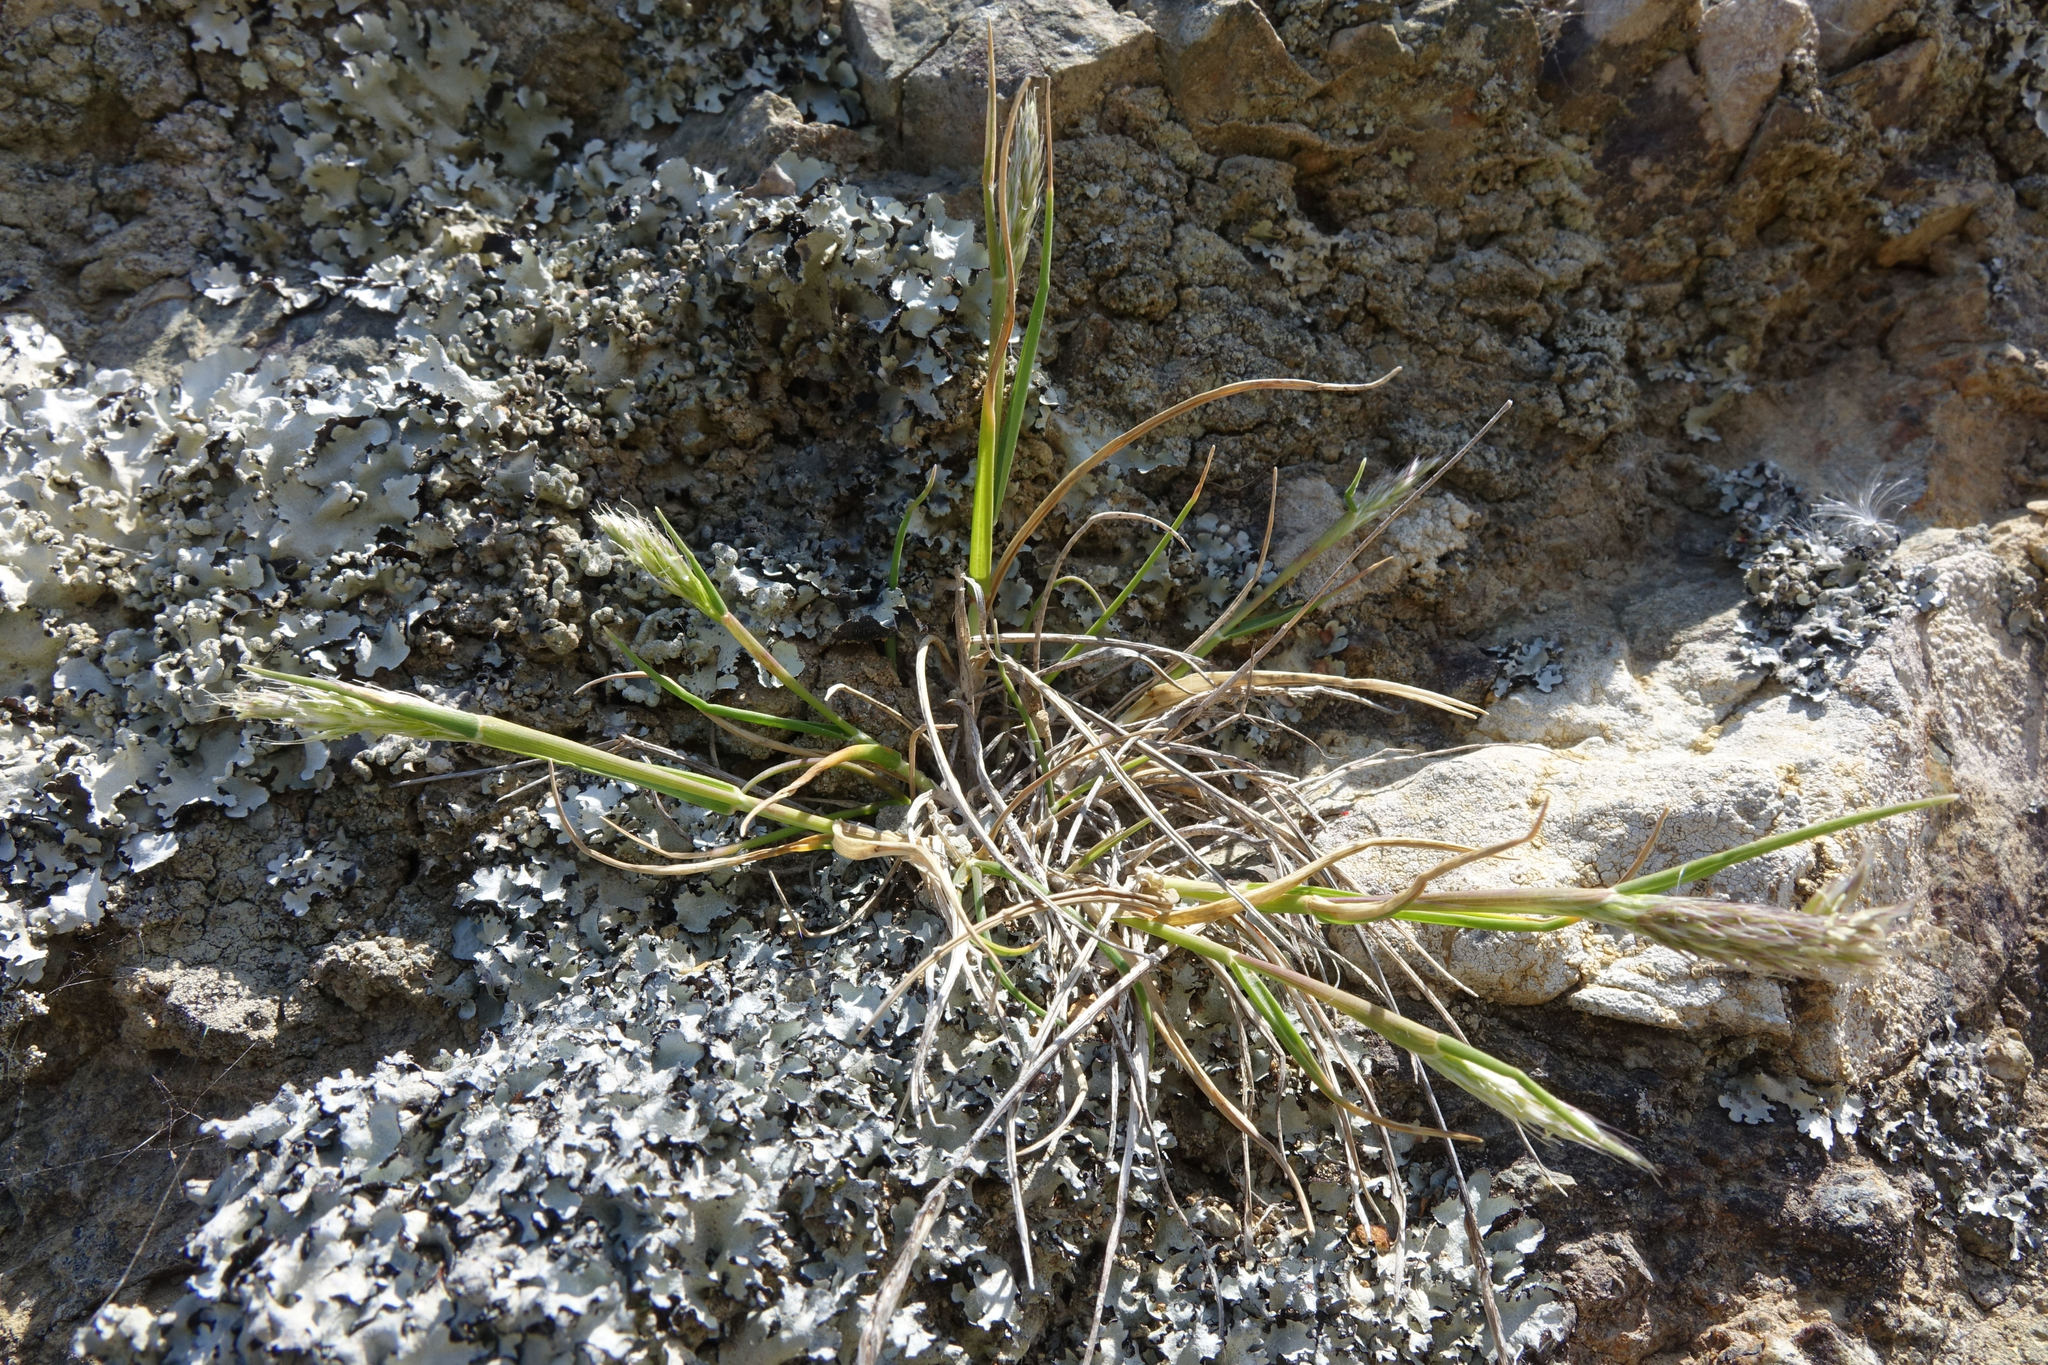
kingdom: Plantae
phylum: Tracheophyta
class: Liliopsida
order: Poales
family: Poaceae
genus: Koeleria
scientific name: Koeleria antarctica
